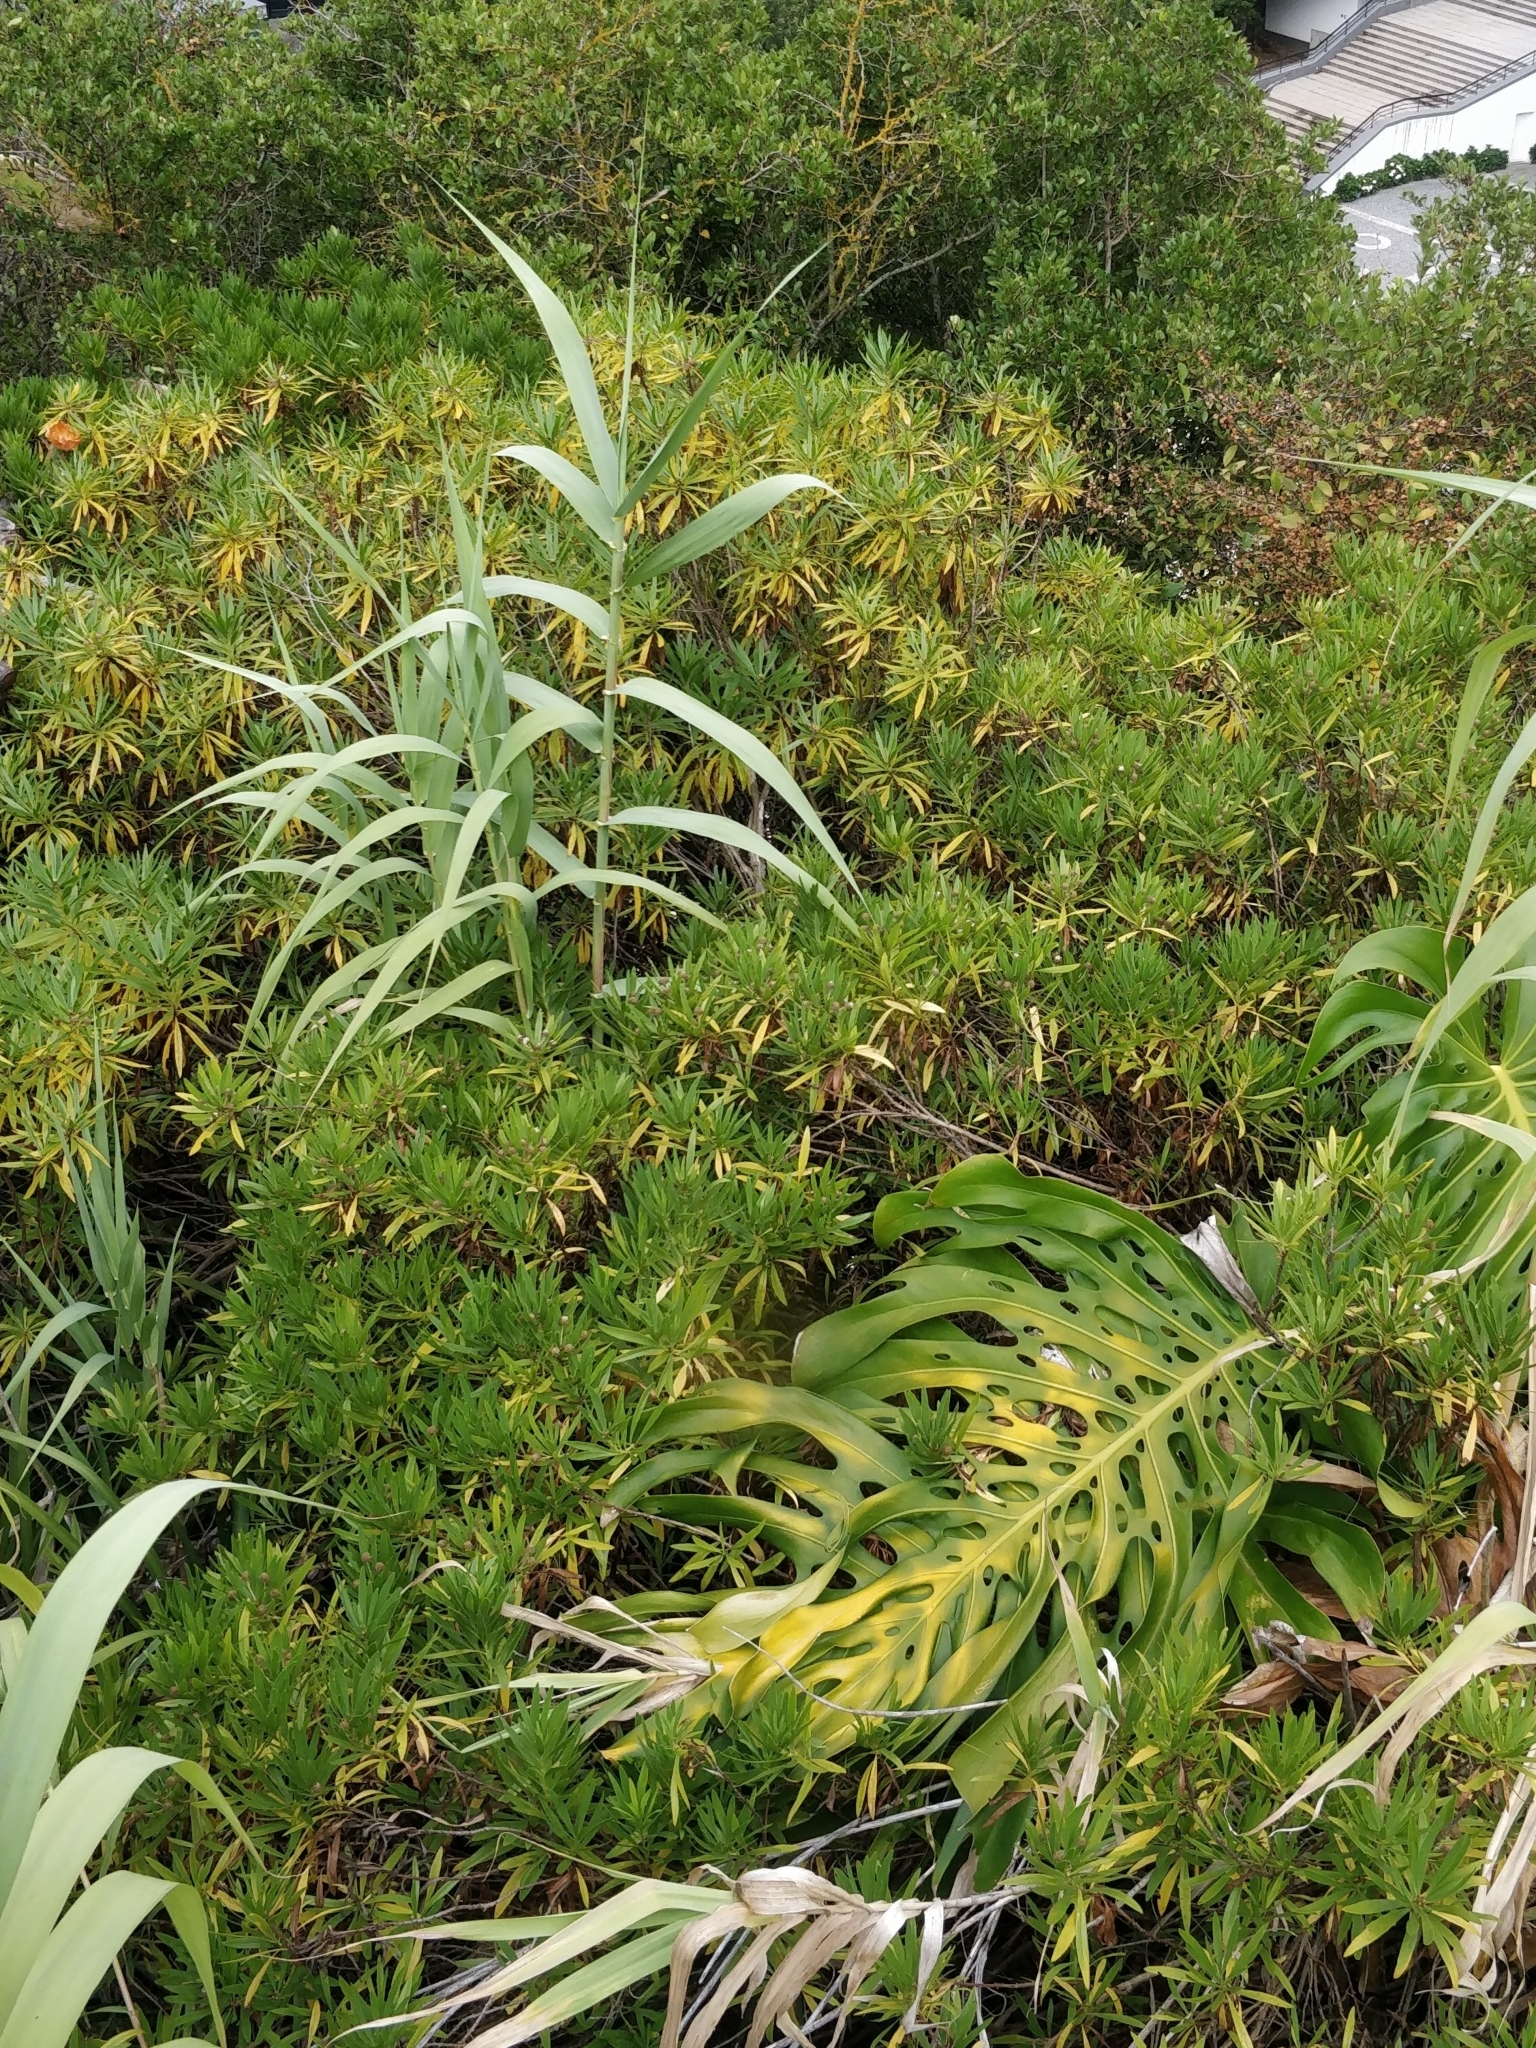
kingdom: Plantae
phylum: Tracheophyta
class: Magnoliopsida
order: Lamiales
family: Plantaginaceae
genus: Globularia
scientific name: Globularia salicina
